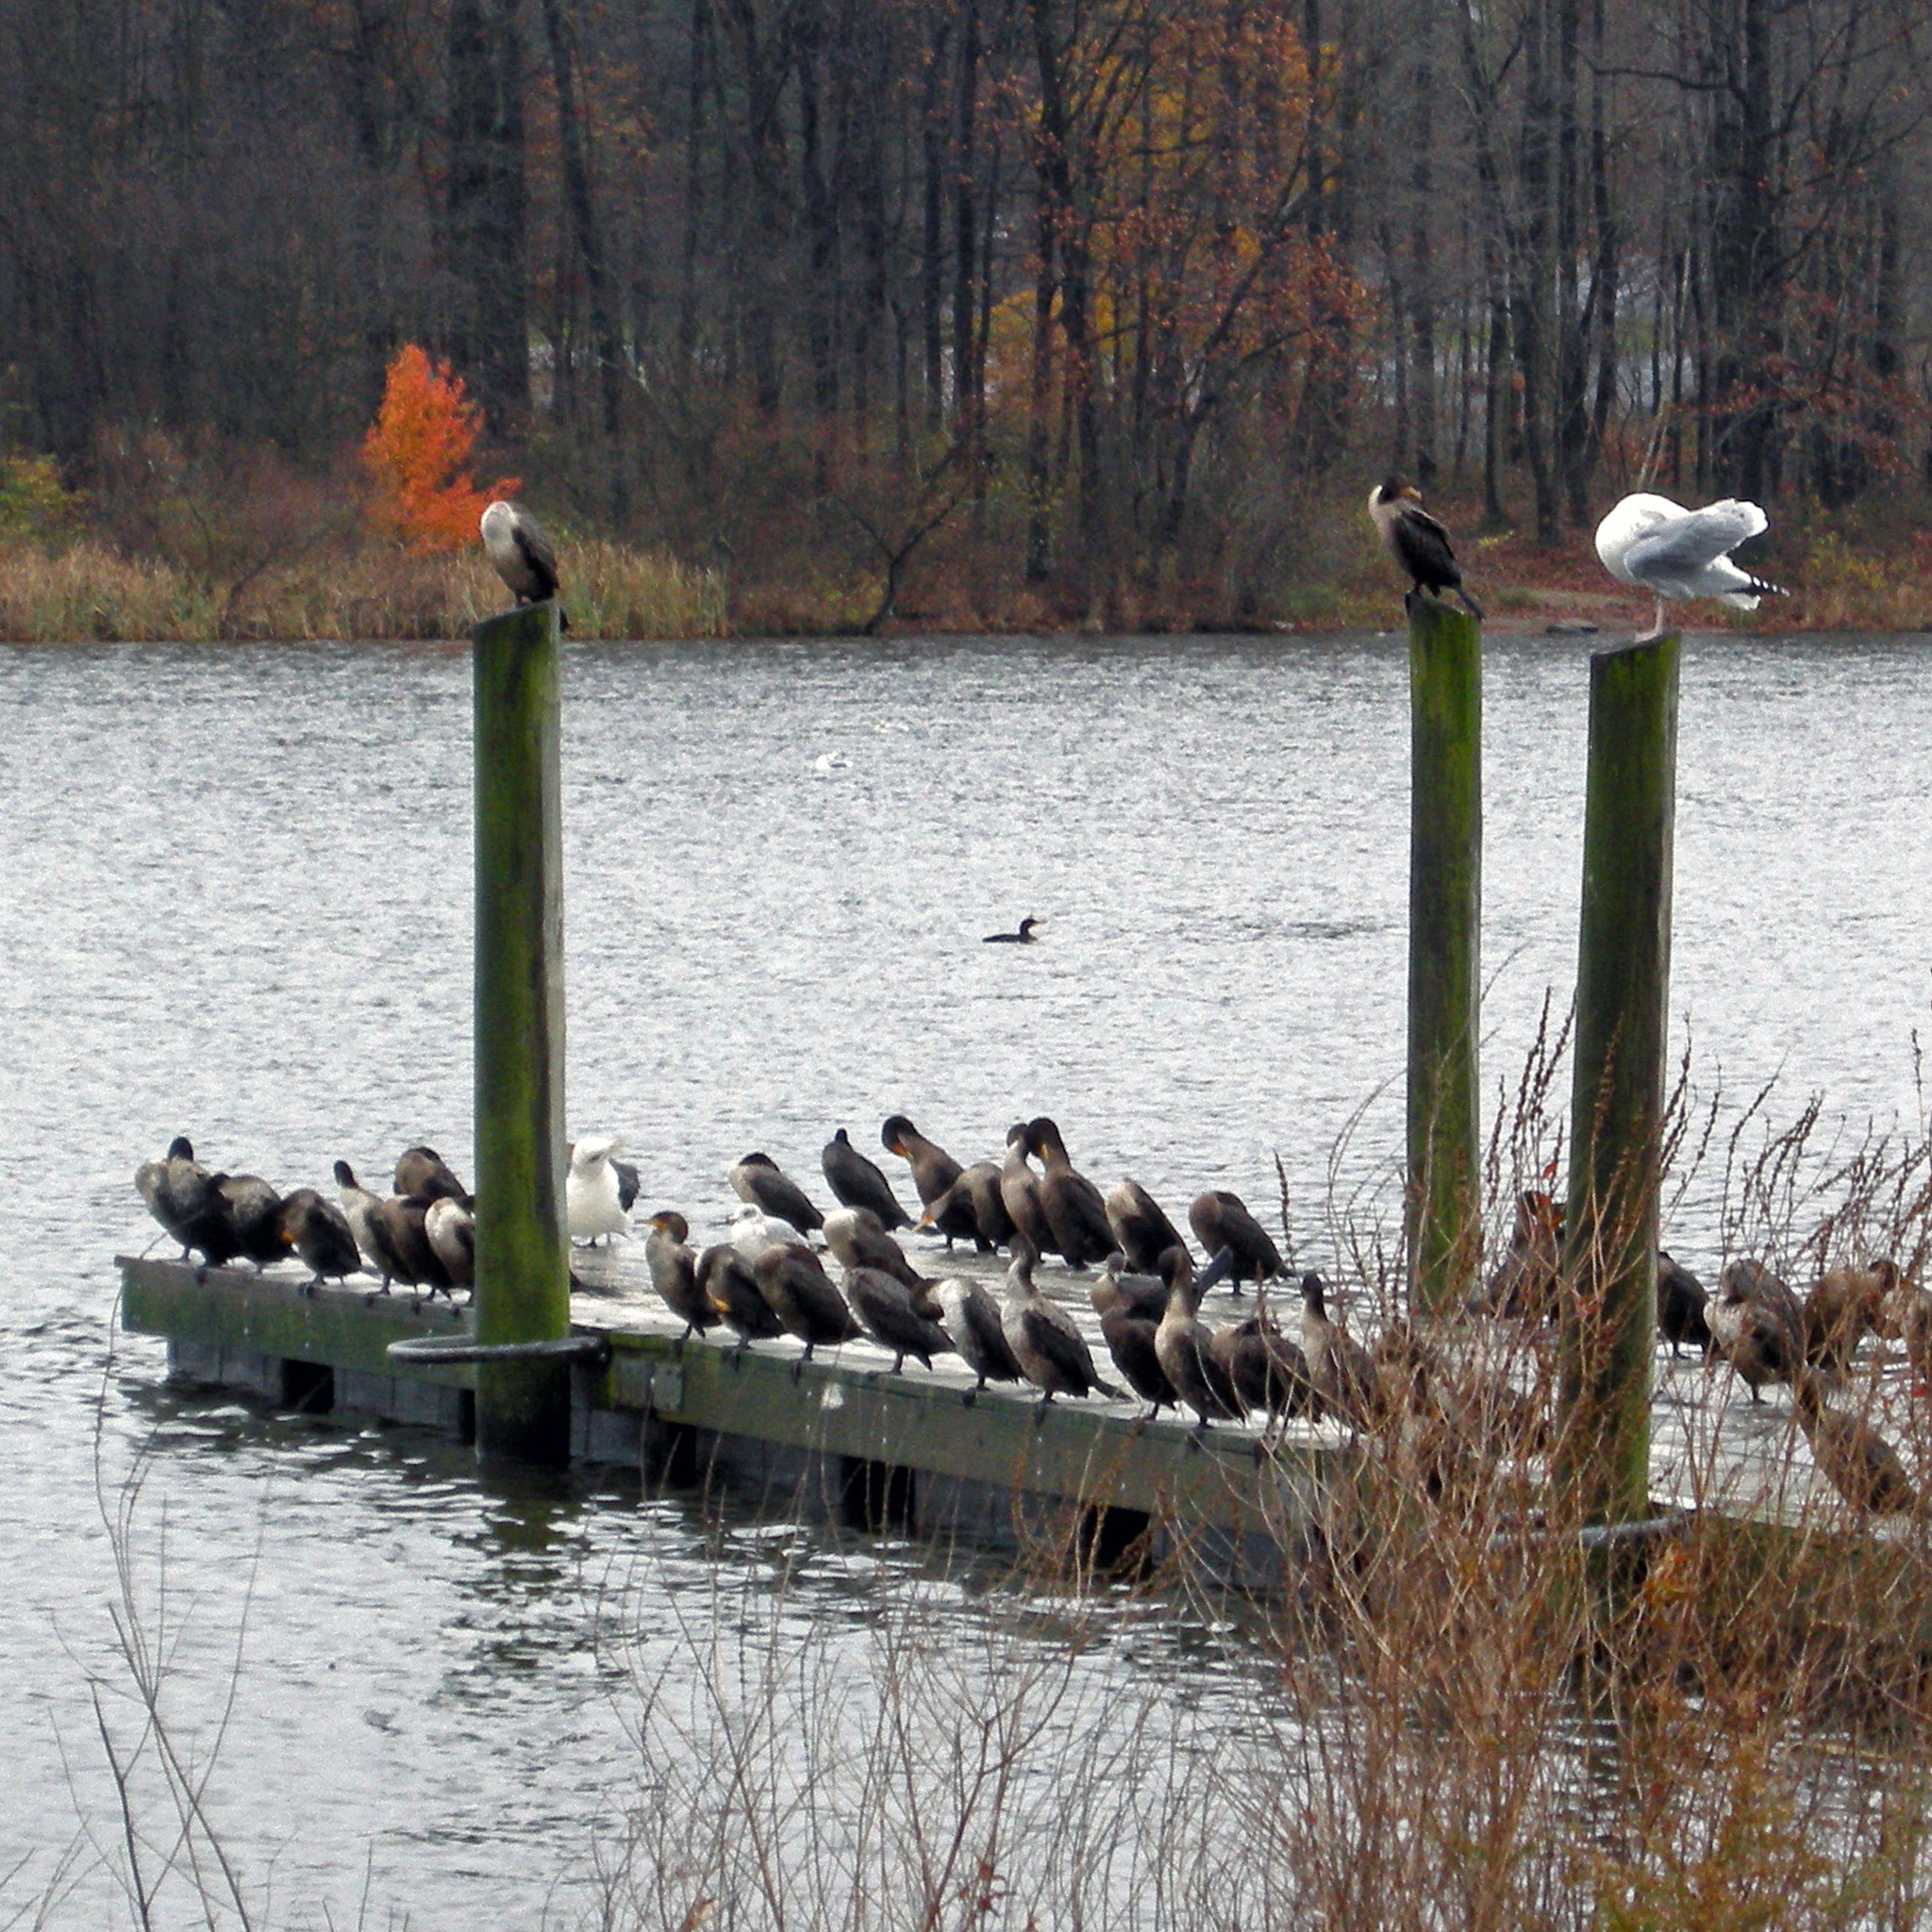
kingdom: Animalia
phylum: Chordata
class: Aves
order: Suliformes
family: Phalacrocoracidae
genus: Phalacrocorax
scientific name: Phalacrocorax auritus
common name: Double-crested cormorant
